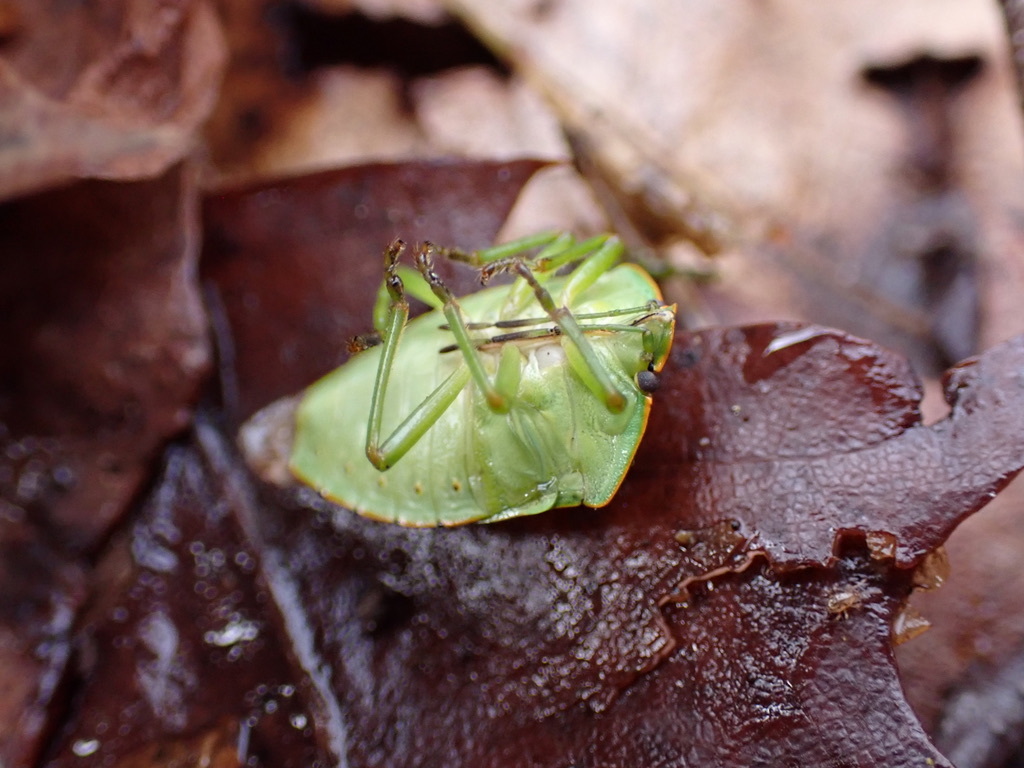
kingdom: Animalia
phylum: Arthropoda
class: Insecta
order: Hemiptera
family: Pentatomidae
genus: Chinavia
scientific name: Chinavia hilaris
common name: Green stink bug
